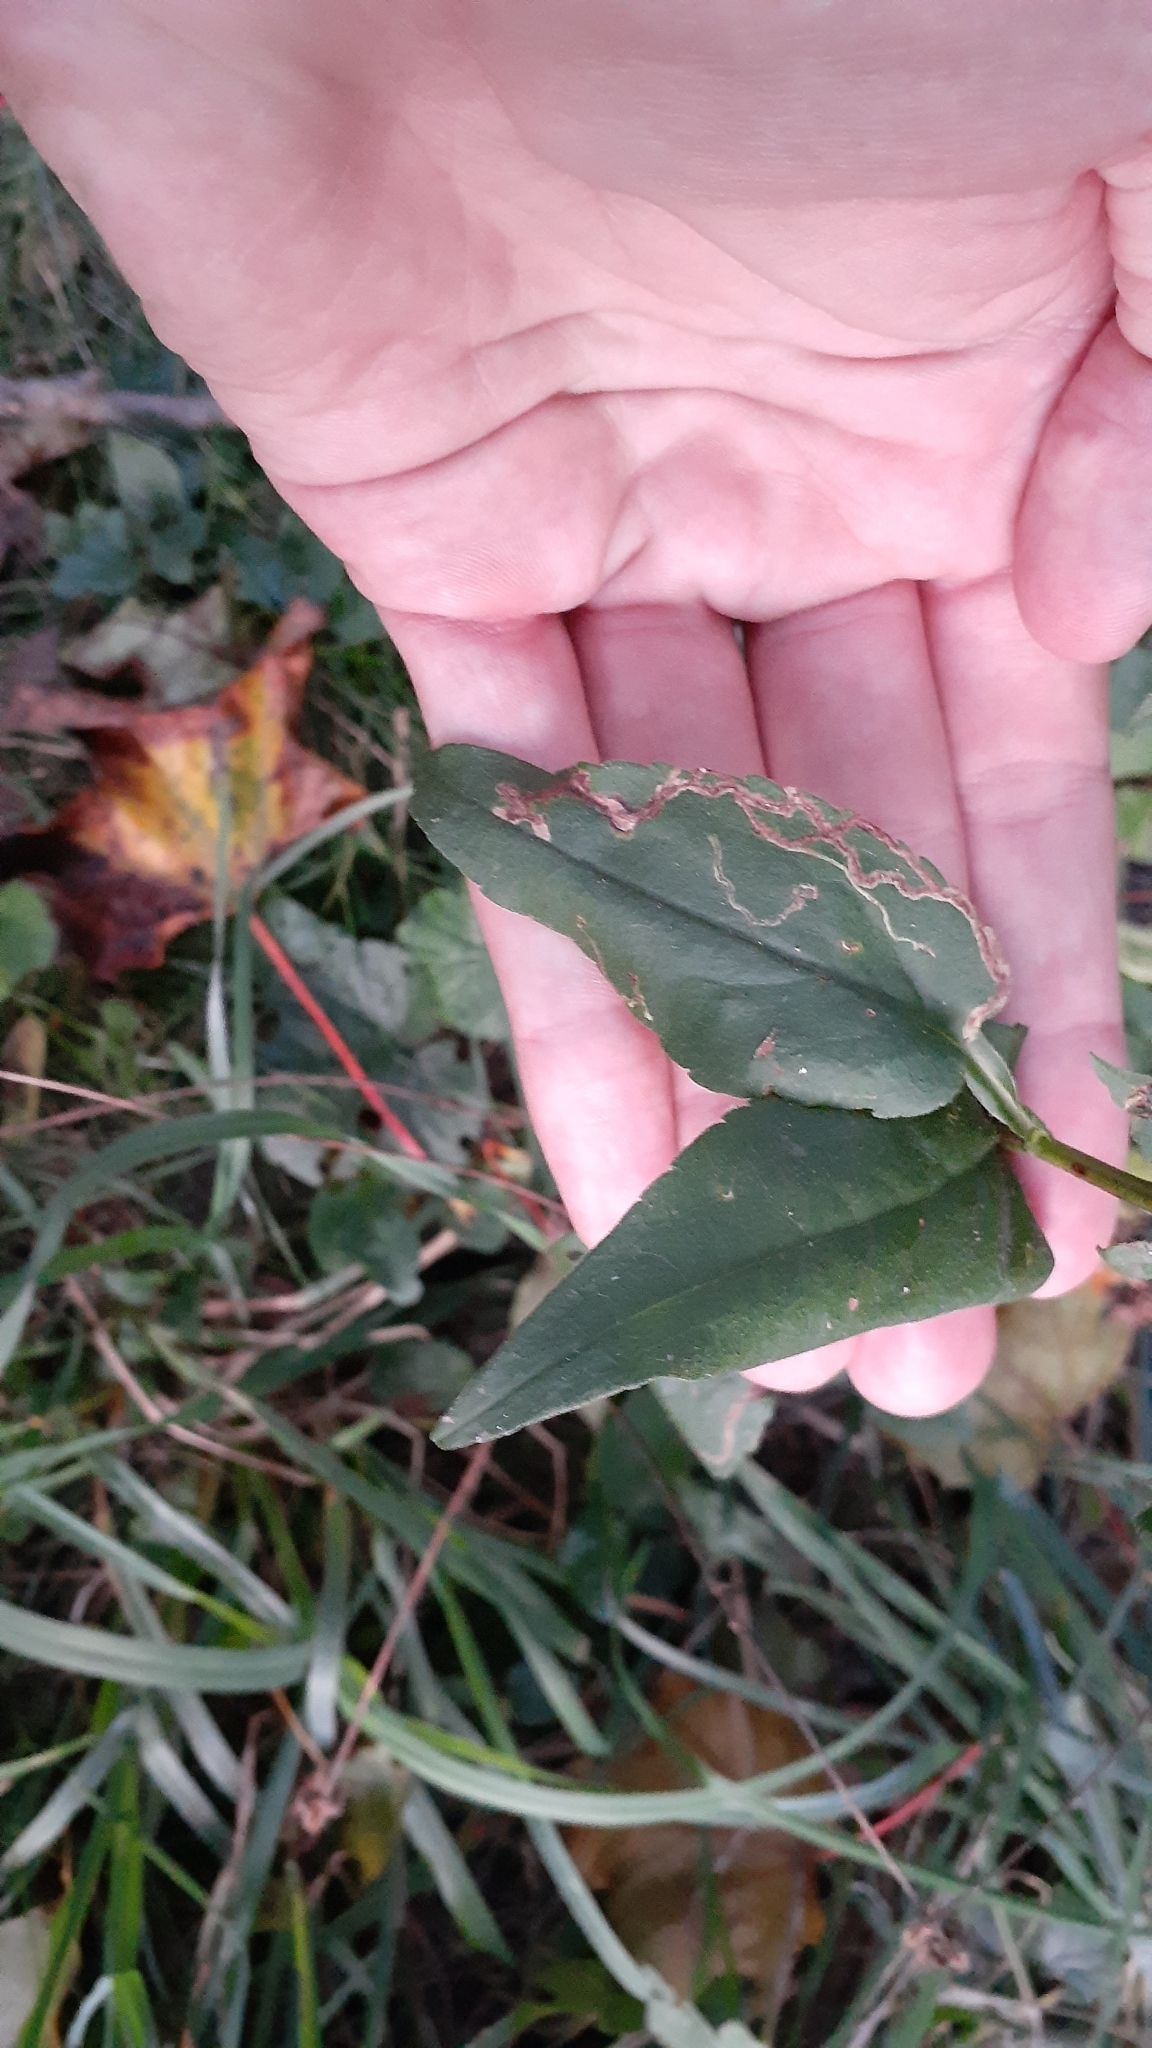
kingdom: Plantae
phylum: Tracheophyta
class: Magnoliopsida
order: Asterales
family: Asteraceae
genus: Symphyotrichum
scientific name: Symphyotrichum urophyllum
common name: Arrow-leaved aster
